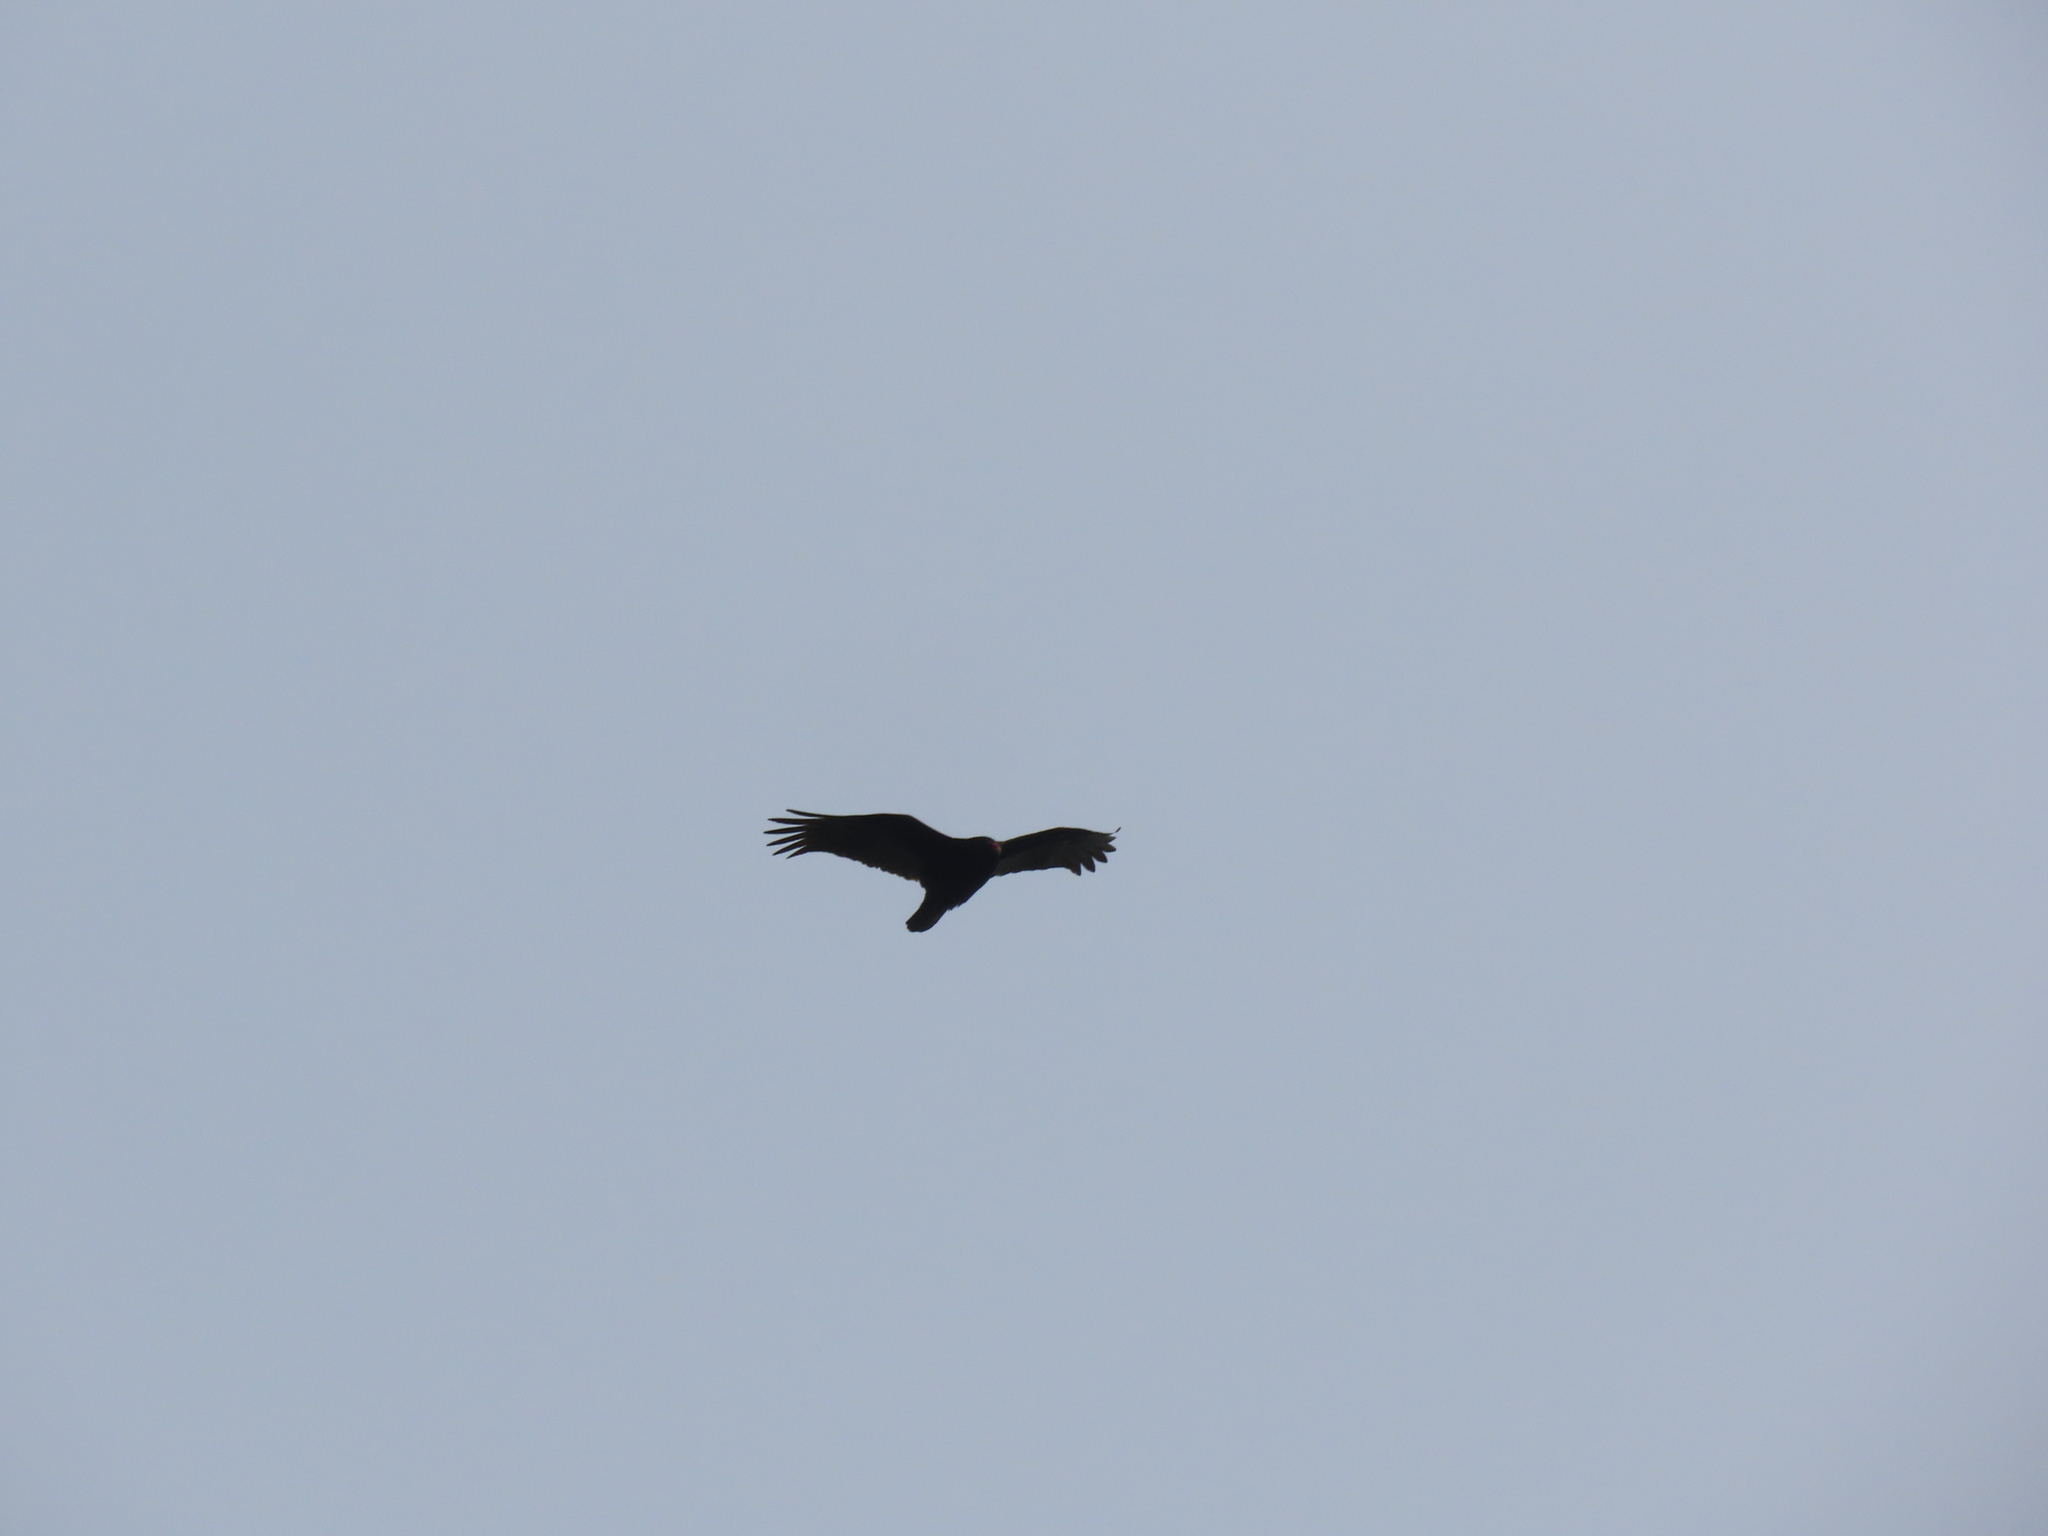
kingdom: Animalia
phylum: Chordata
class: Aves
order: Accipitriformes
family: Cathartidae
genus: Cathartes
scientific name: Cathartes aura
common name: Turkey vulture
